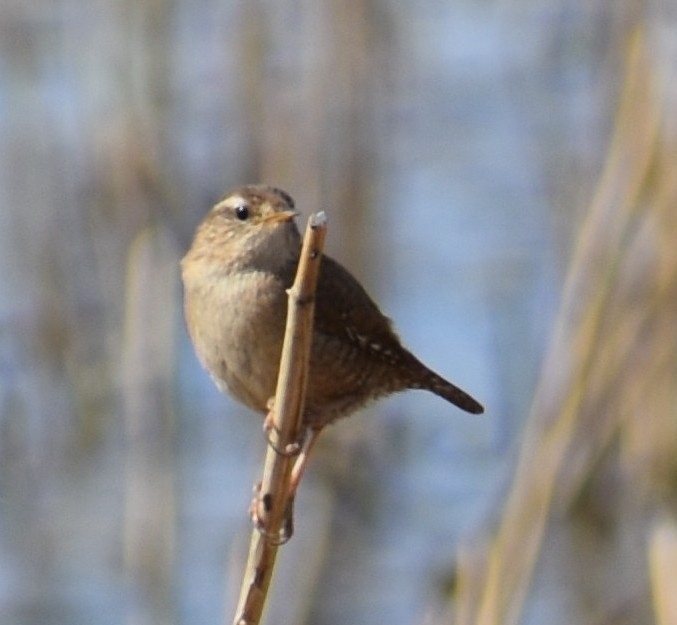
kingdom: Animalia
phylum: Chordata
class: Aves
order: Passeriformes
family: Troglodytidae
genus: Troglodytes
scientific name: Troglodytes troglodytes
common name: Eurasian wren
